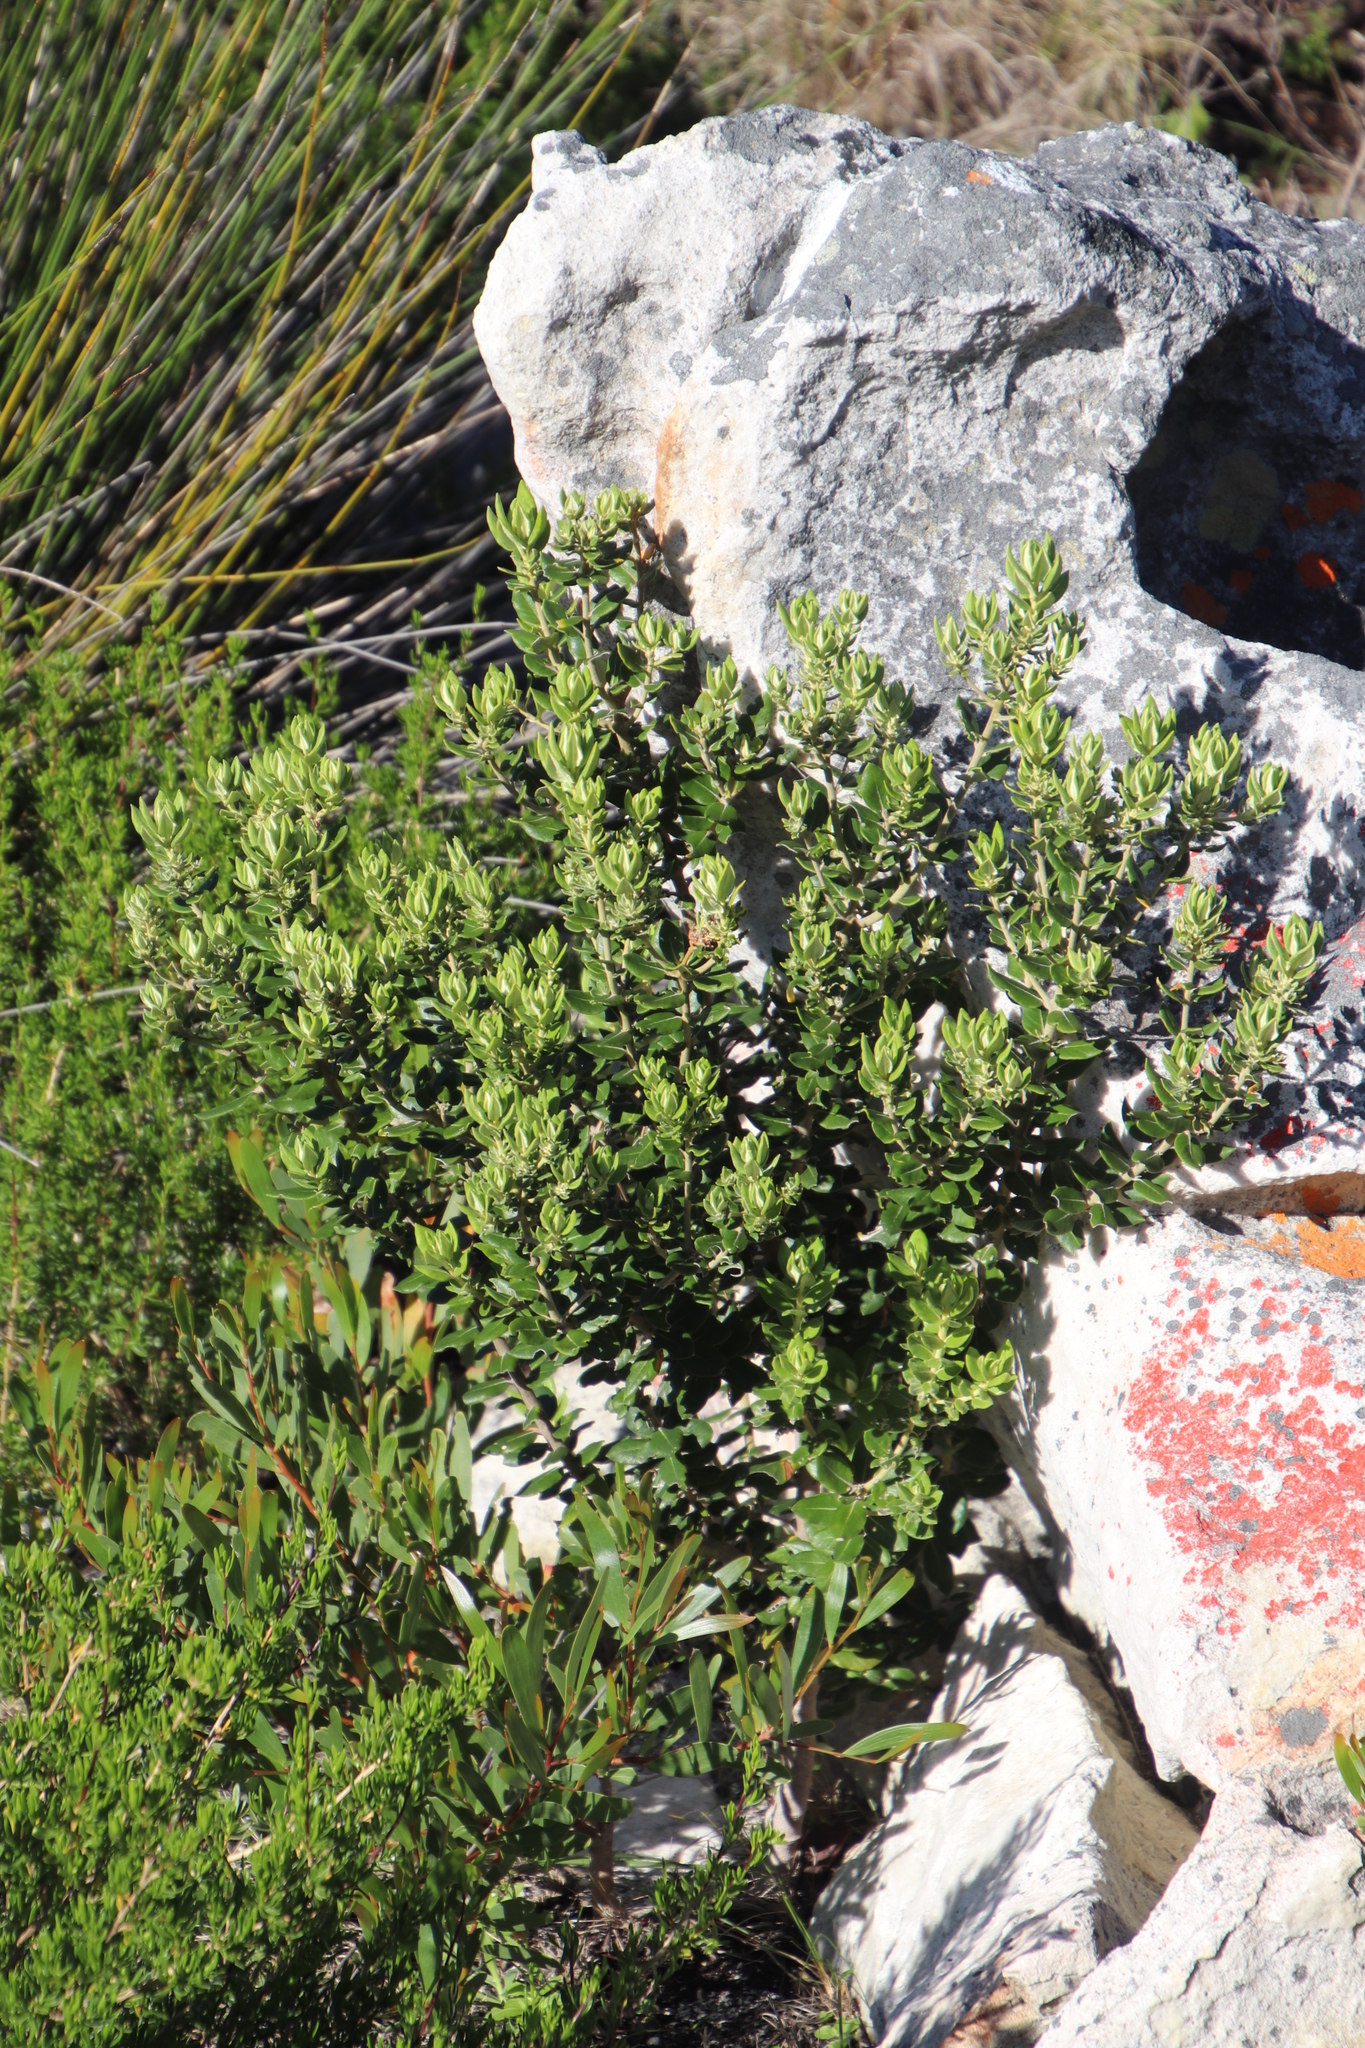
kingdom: Plantae
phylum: Tracheophyta
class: Magnoliopsida
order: Rosales
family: Rhamnaceae
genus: Phylica
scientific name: Phylica buxifolia
